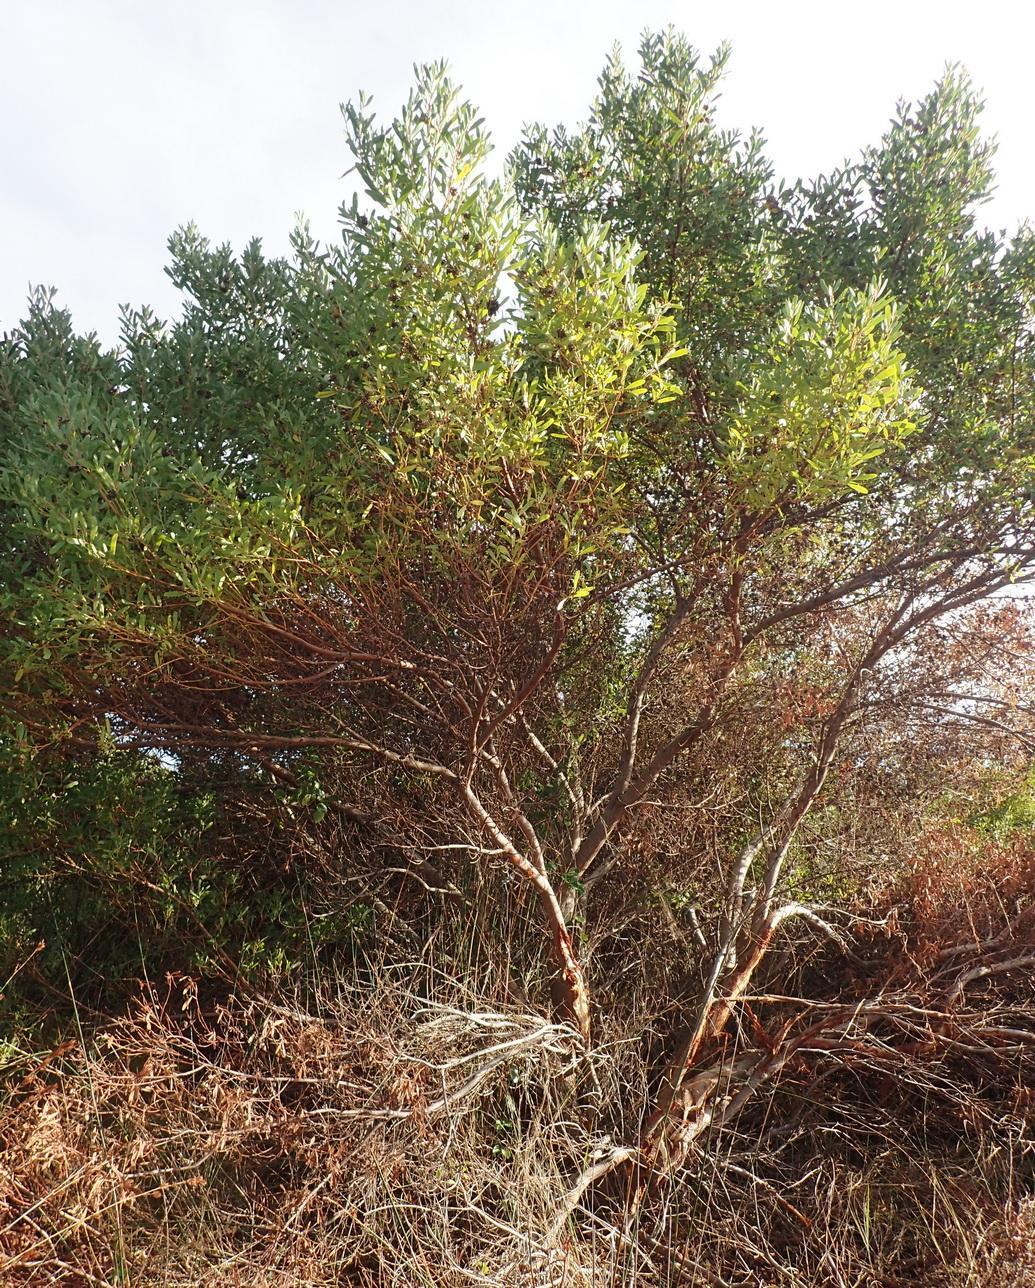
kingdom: Plantae
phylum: Tracheophyta
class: Magnoliopsida
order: Fabales
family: Fabaceae
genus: Acacia
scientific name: Acacia cyclops
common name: Coastal wattle
